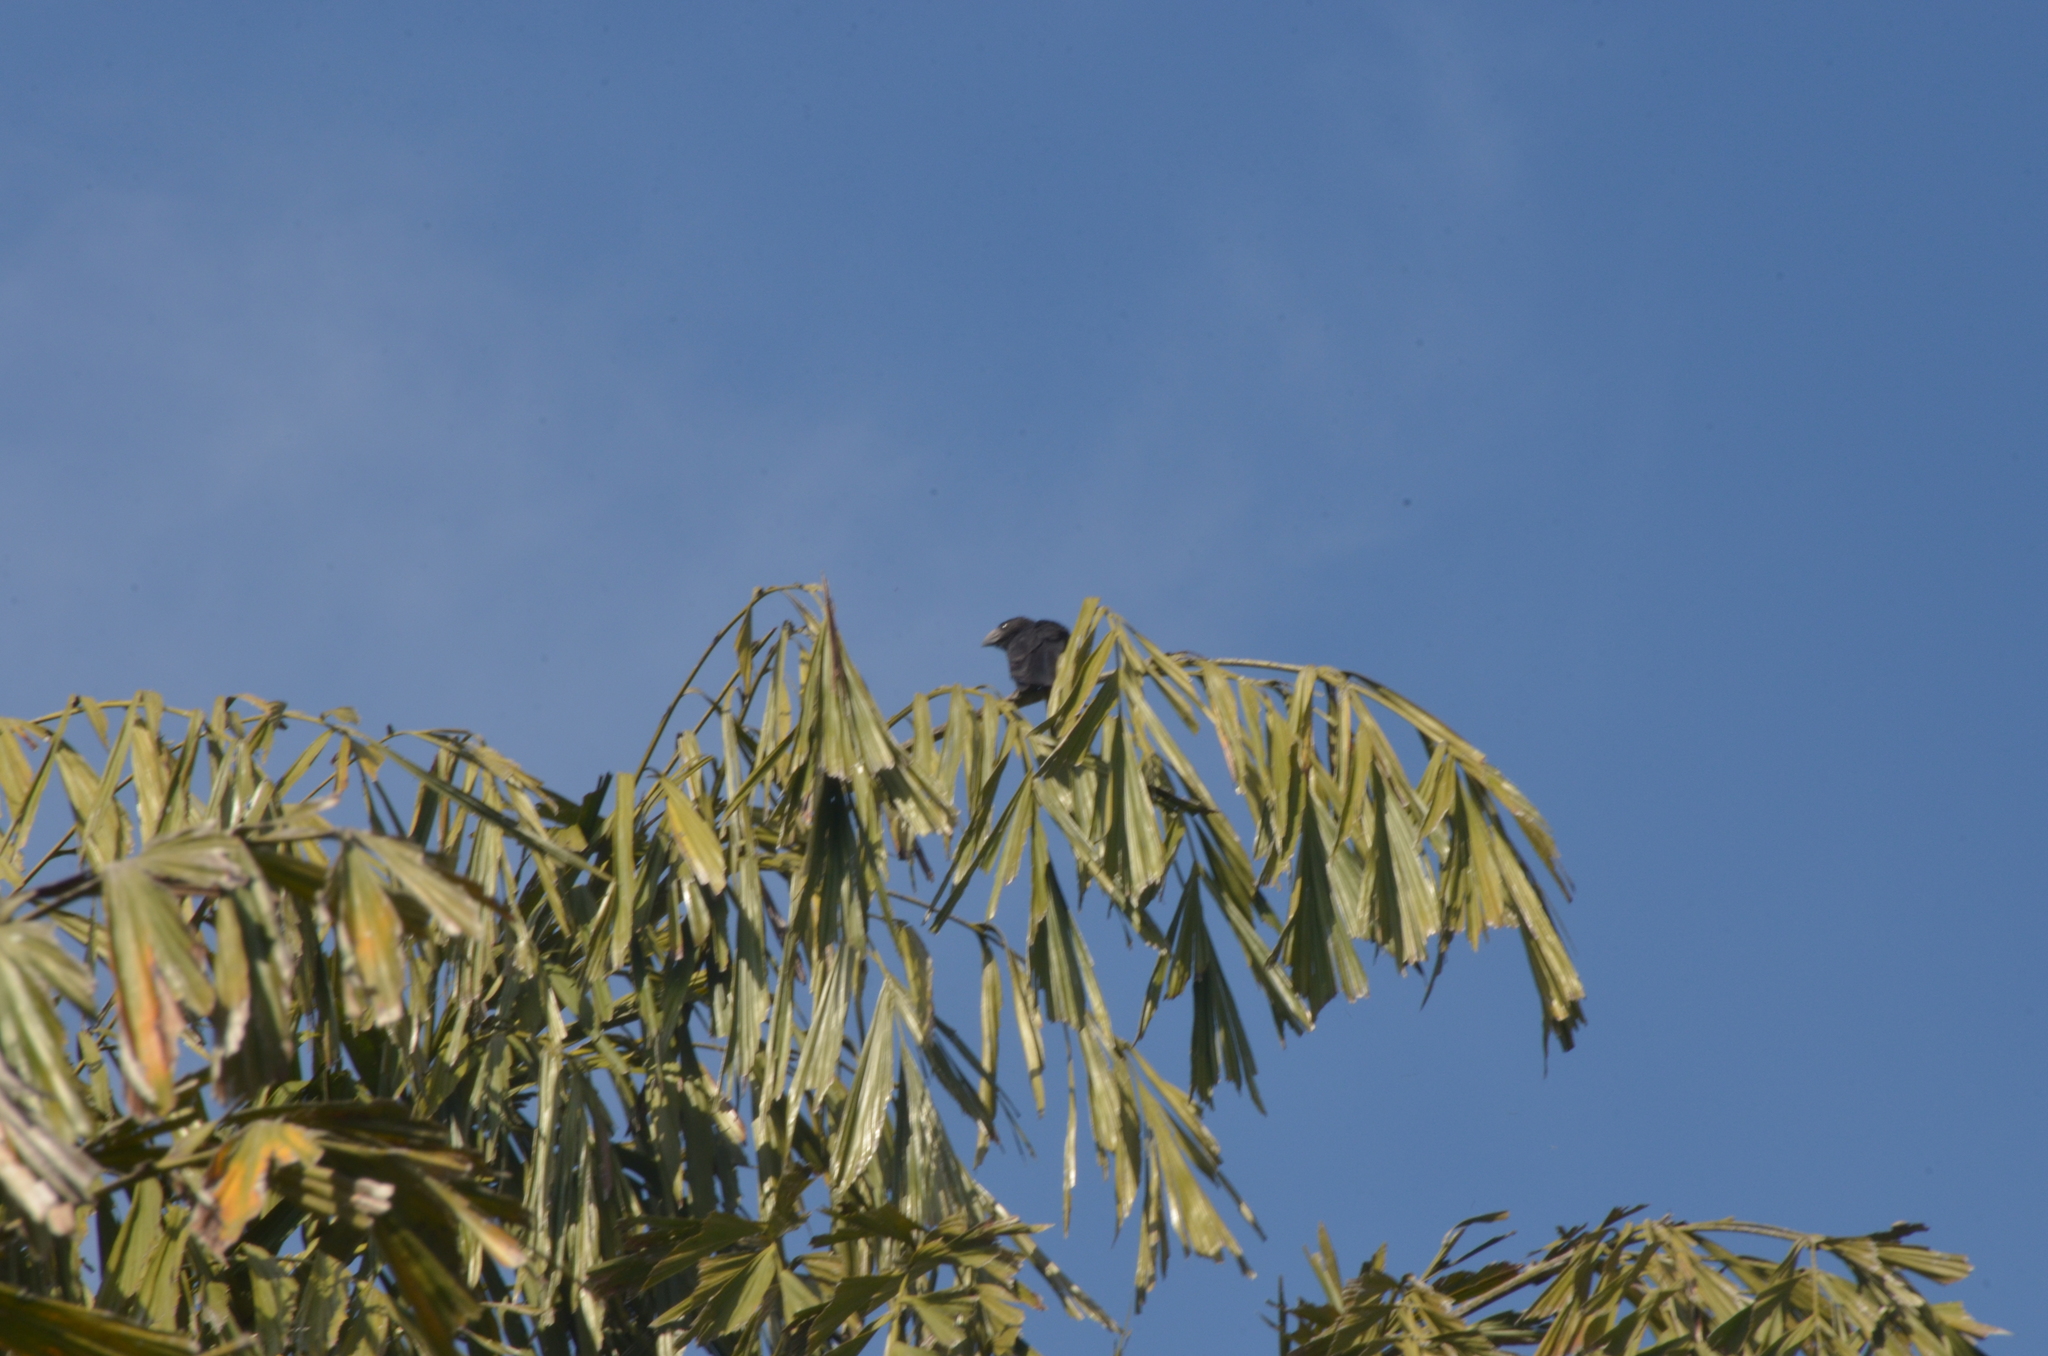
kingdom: Animalia
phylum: Chordata
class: Aves
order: Cuculiformes
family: Cuculidae
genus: Crotophaga
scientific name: Crotophaga ani
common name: Smooth-billed ani
